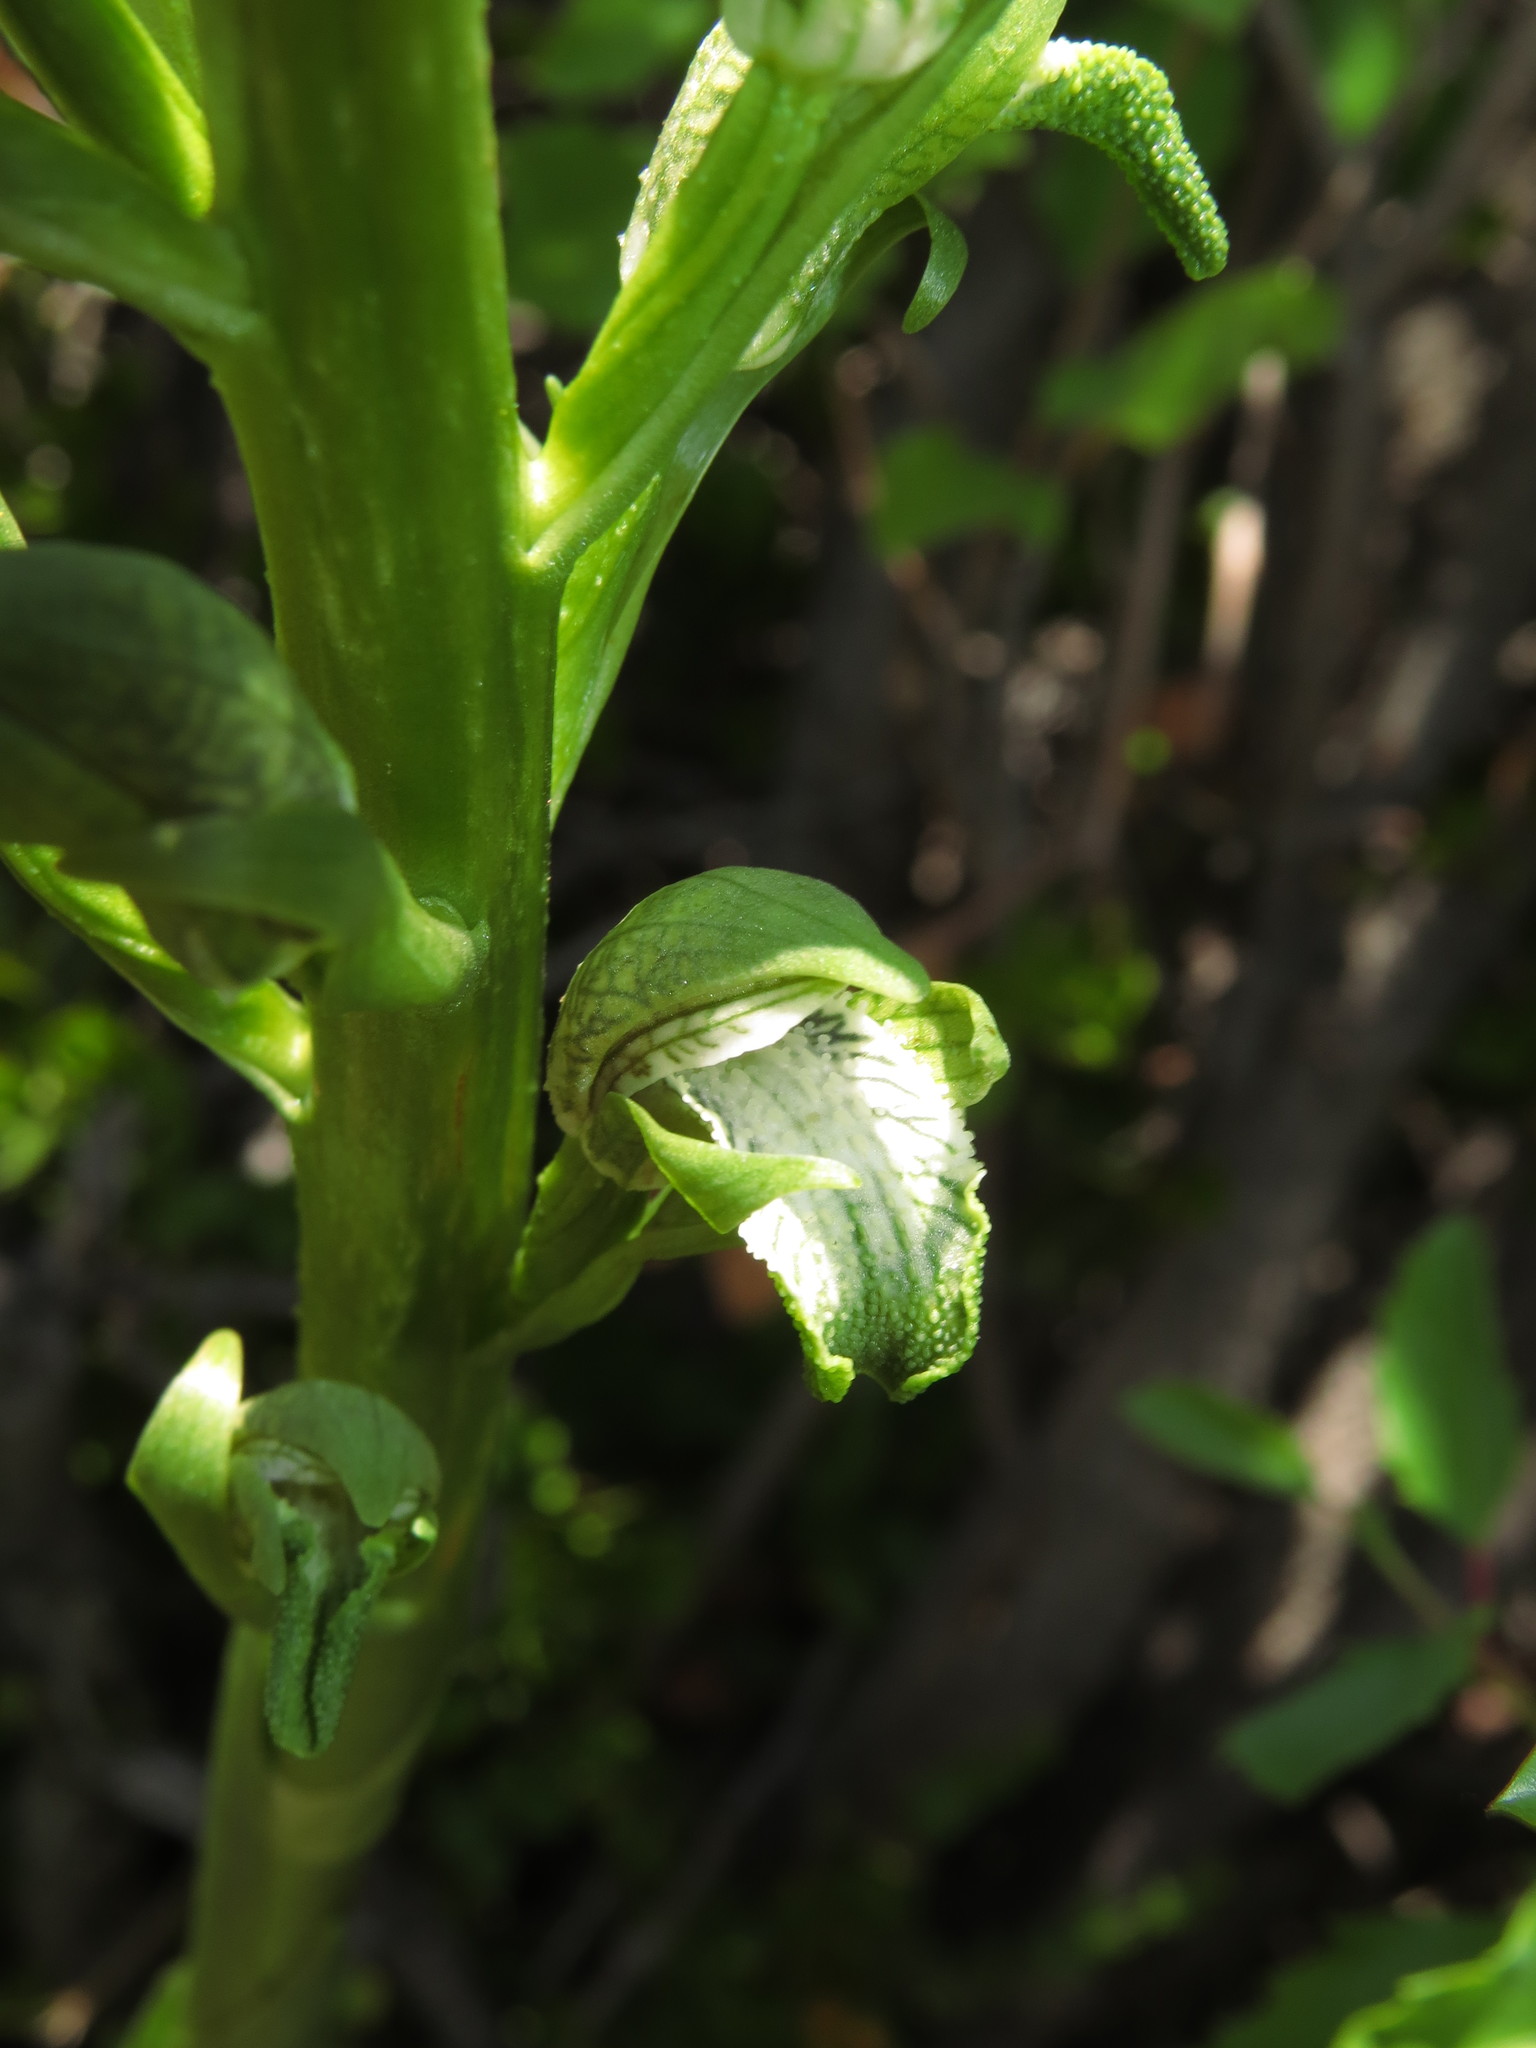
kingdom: Plantae
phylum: Tracheophyta
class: Liliopsida
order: Asparagales
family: Orchidaceae
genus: Chloraea
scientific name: Chloraea cylindrostachya
